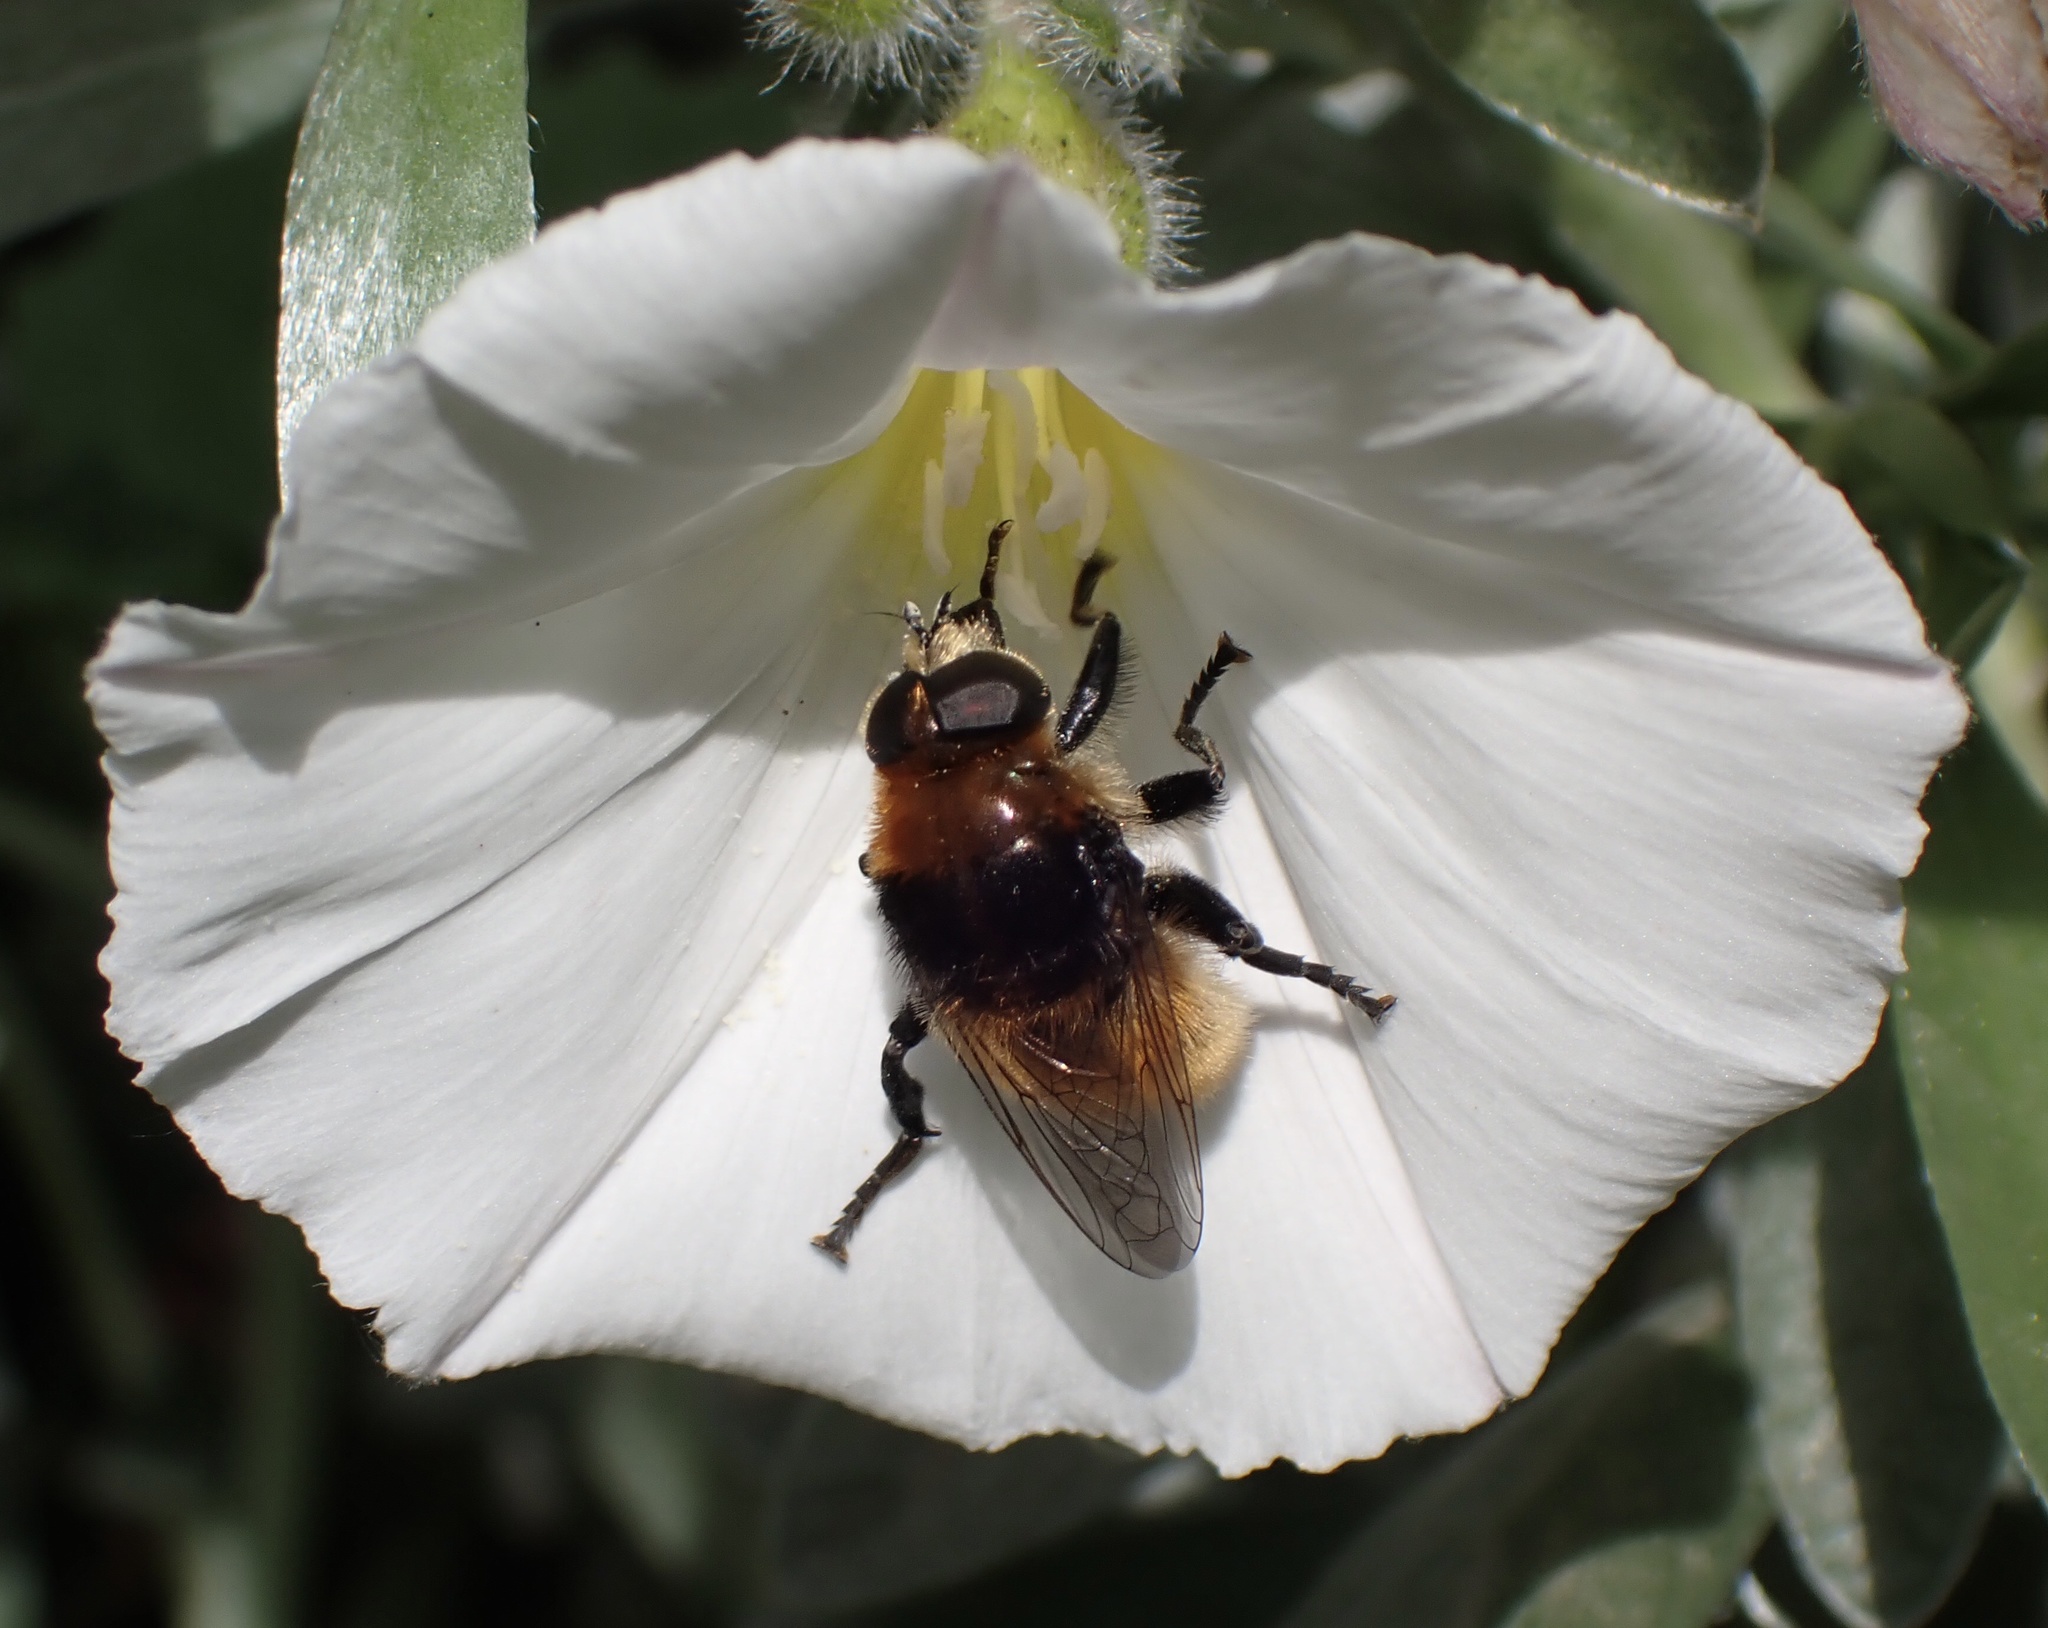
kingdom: Animalia
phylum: Arthropoda
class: Insecta
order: Diptera
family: Syrphidae
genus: Merodon
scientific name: Merodon equestris
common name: Greater bulb-fly
